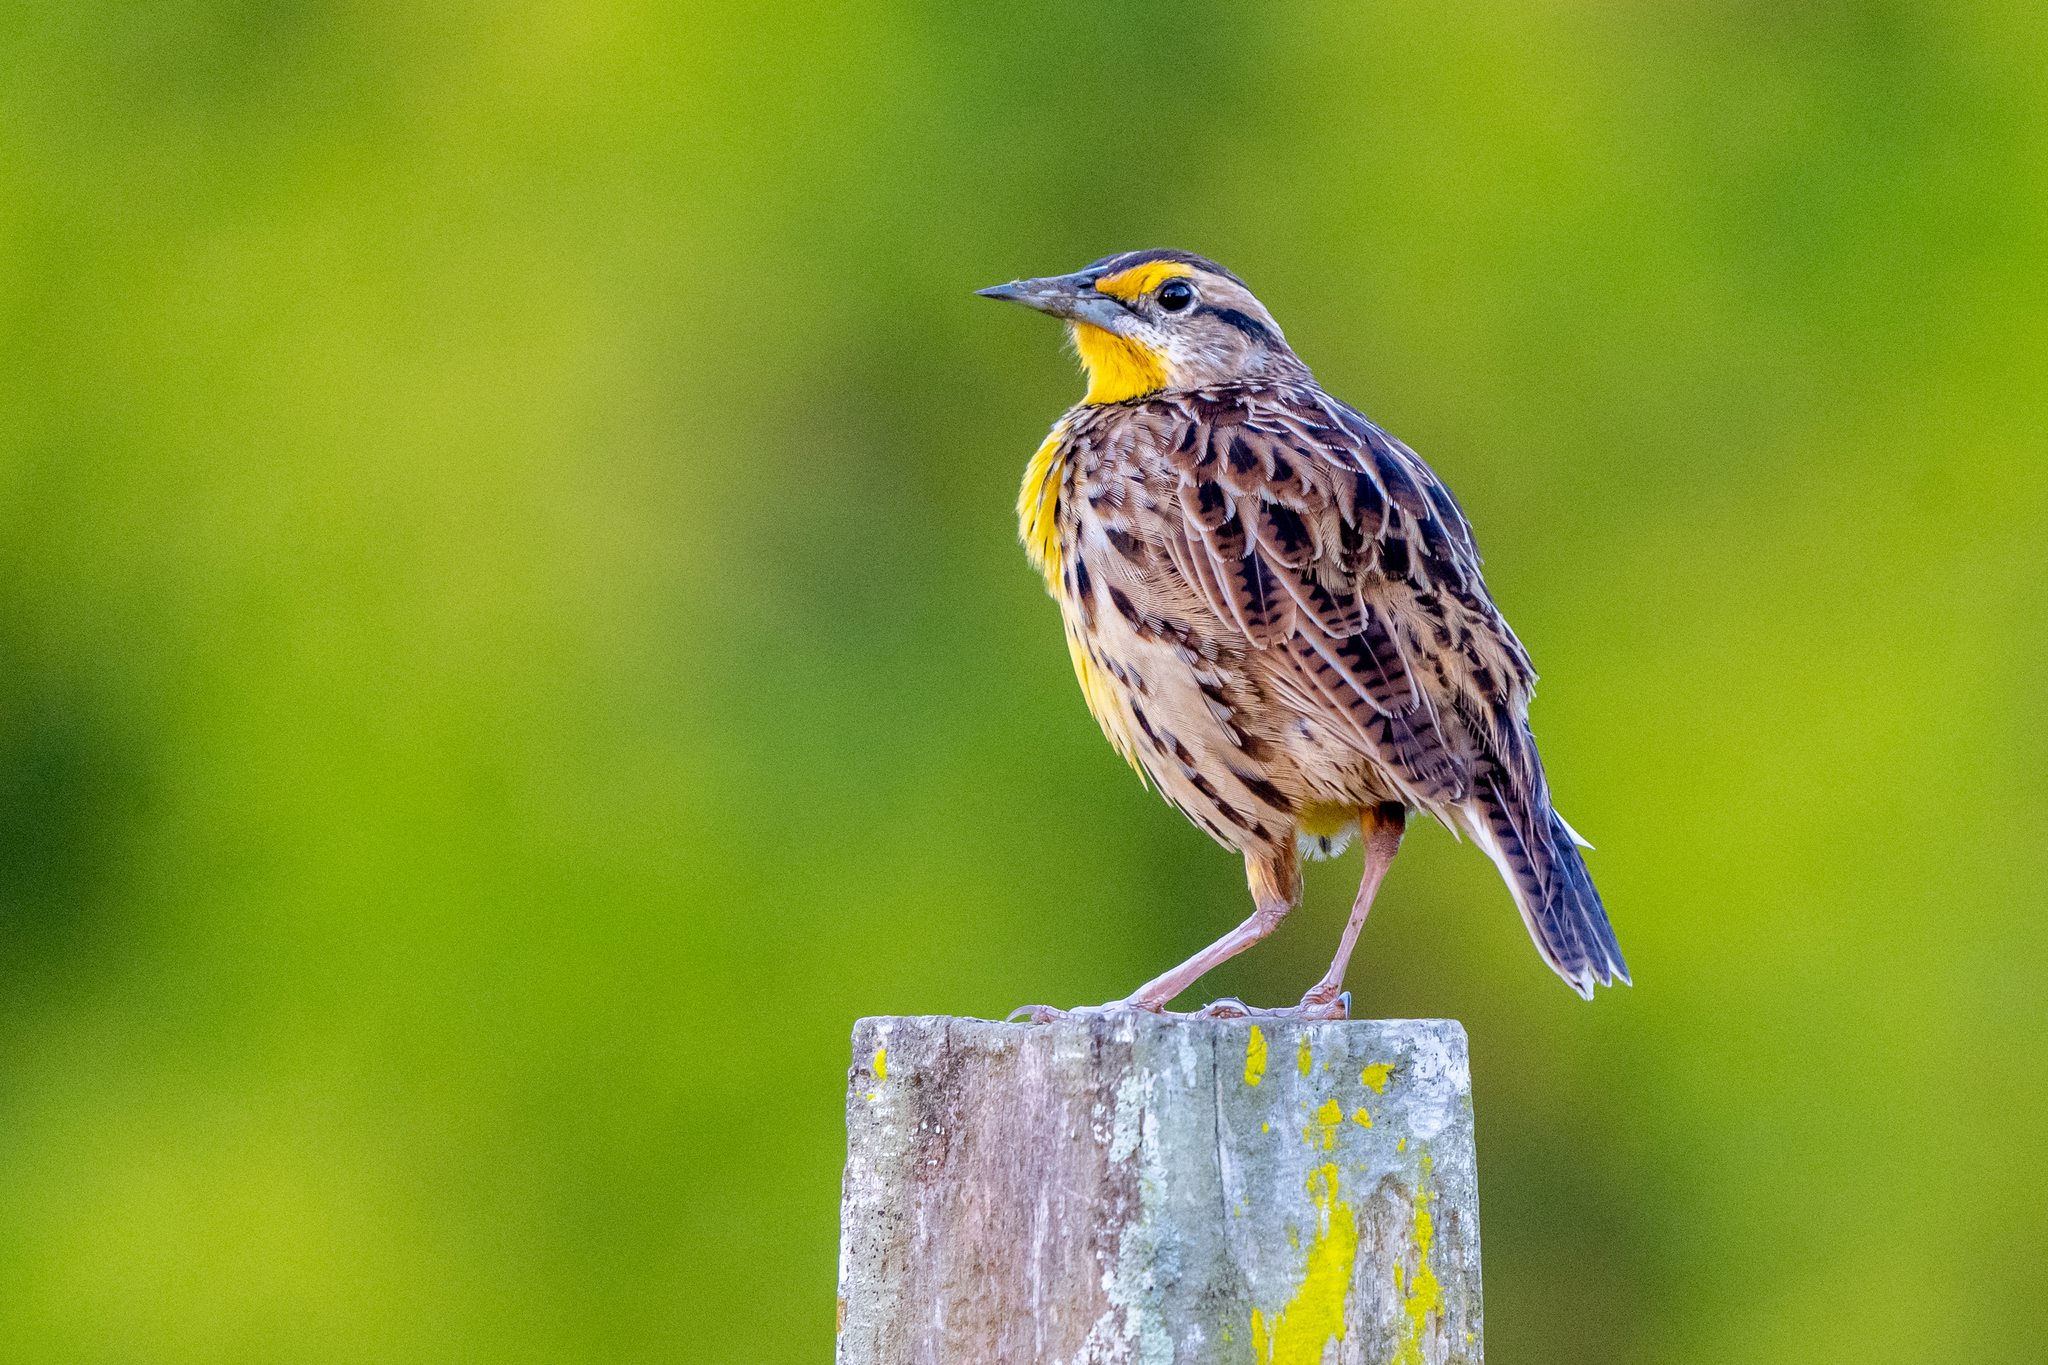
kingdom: Animalia
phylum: Chordata
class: Aves
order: Passeriformes
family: Icteridae
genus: Sturnella
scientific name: Sturnella magna
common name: Eastern meadowlark
